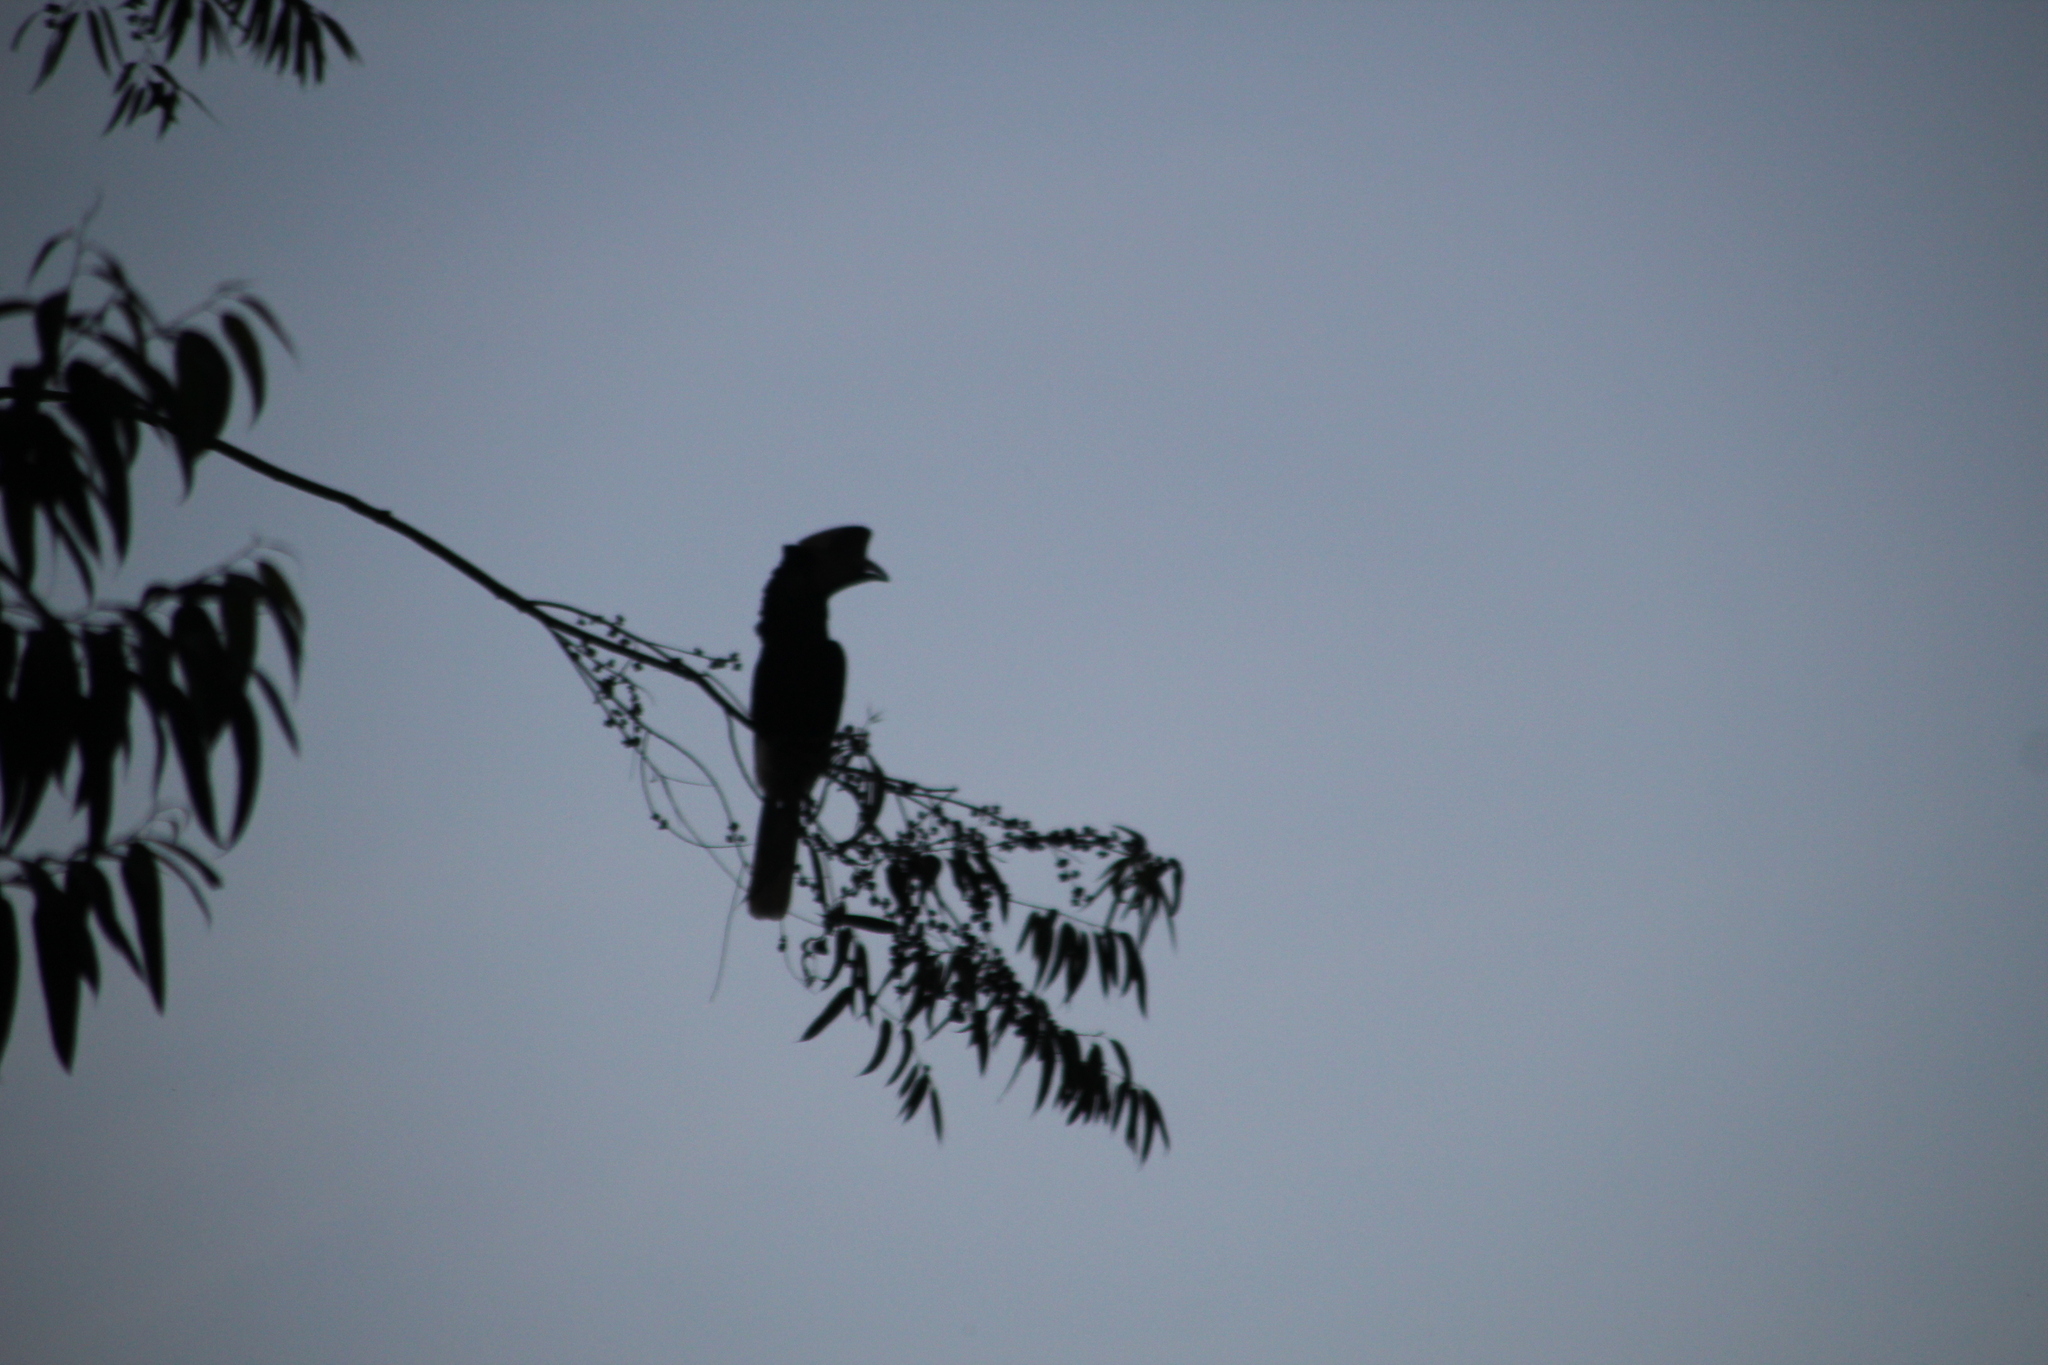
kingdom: Animalia
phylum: Chordata
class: Aves
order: Bucerotiformes
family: Bucerotidae
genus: Bycanistes
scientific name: Bycanistes subcylindricus
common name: Black-and-white-casqued hornbill
